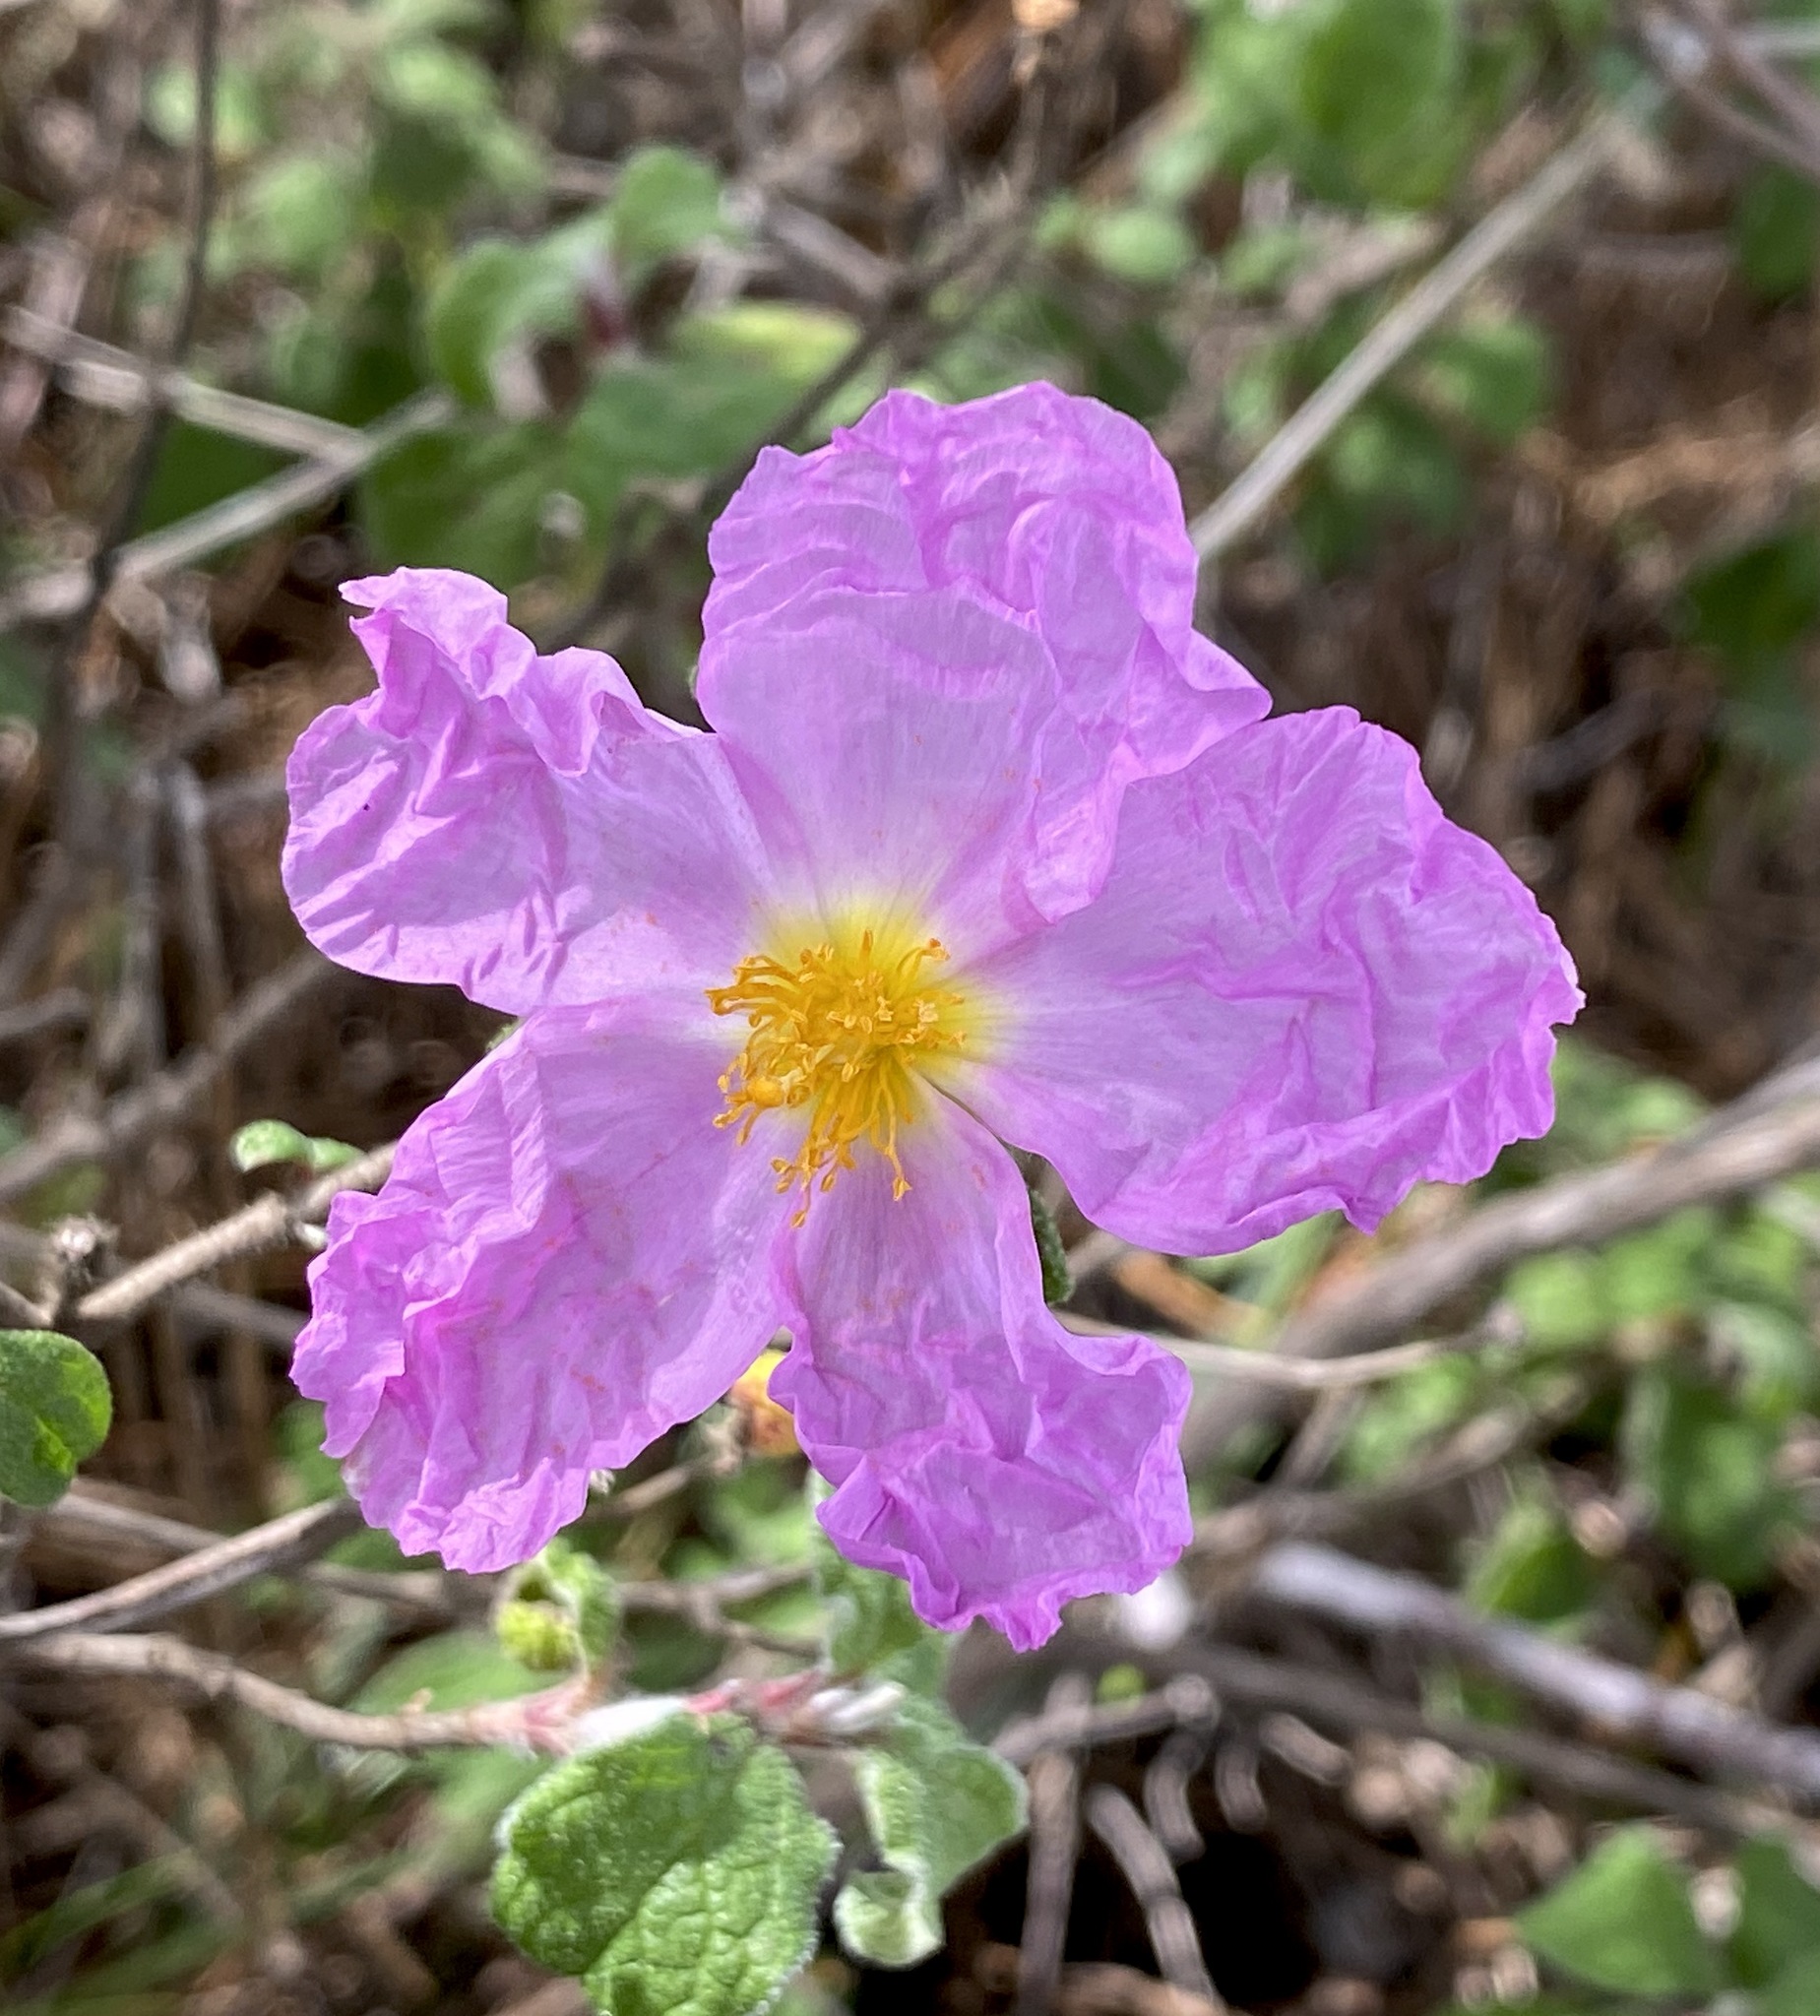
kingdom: Plantae
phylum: Tracheophyta
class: Magnoliopsida
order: Malvales
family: Cistaceae
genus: Cistus
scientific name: Cistus creticus
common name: Cretan rockrose
